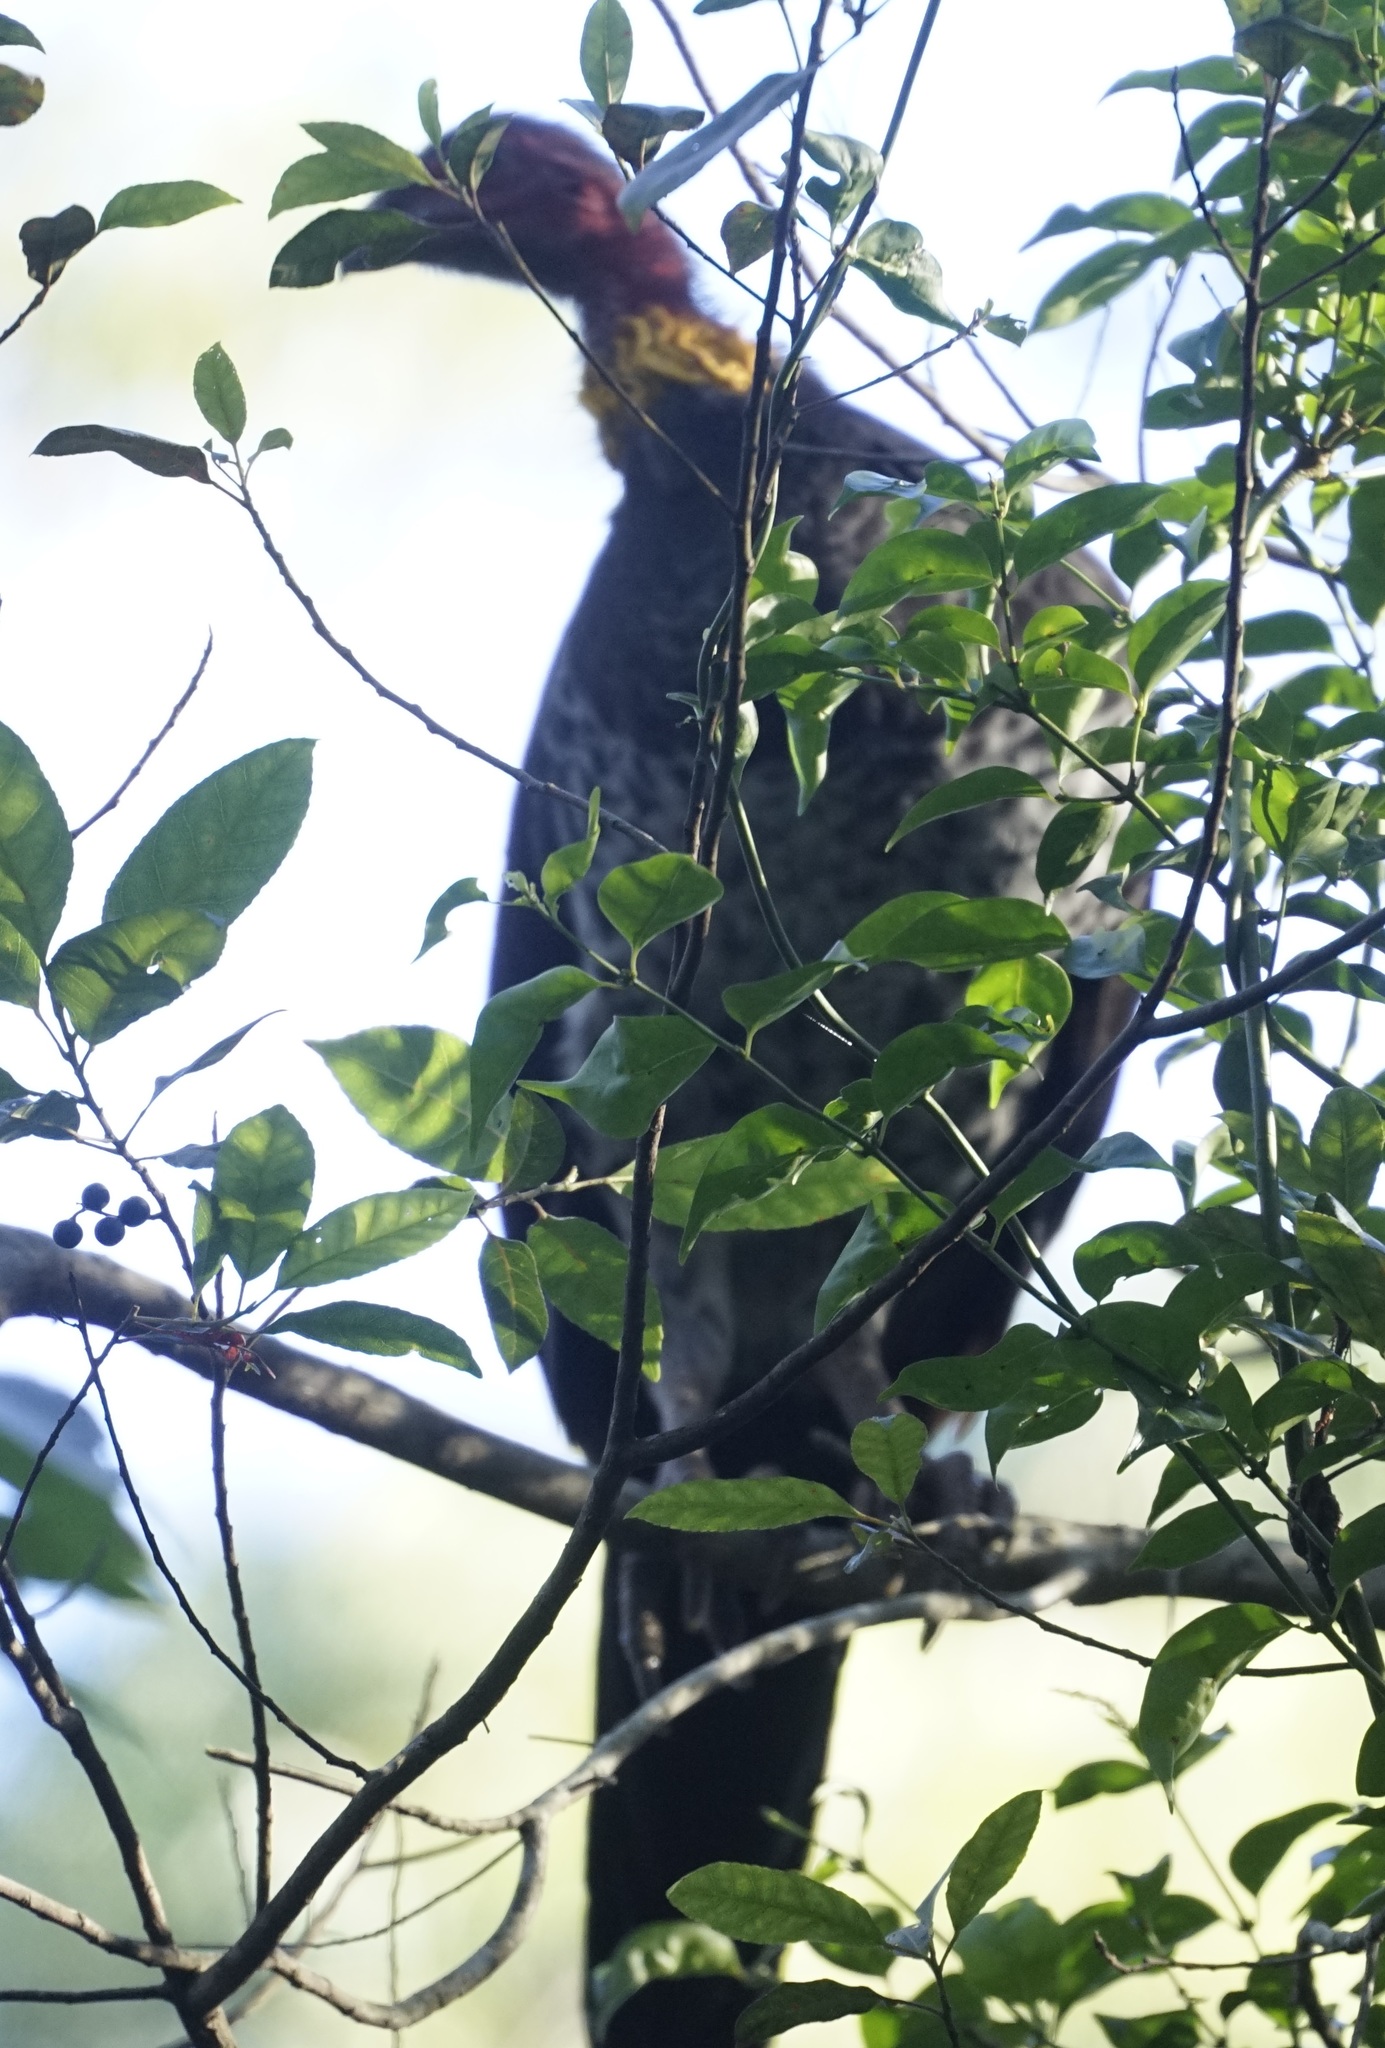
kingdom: Animalia
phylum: Chordata
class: Aves
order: Galliformes
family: Megapodiidae
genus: Alectura
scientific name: Alectura lathami
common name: Australian brushturkey
